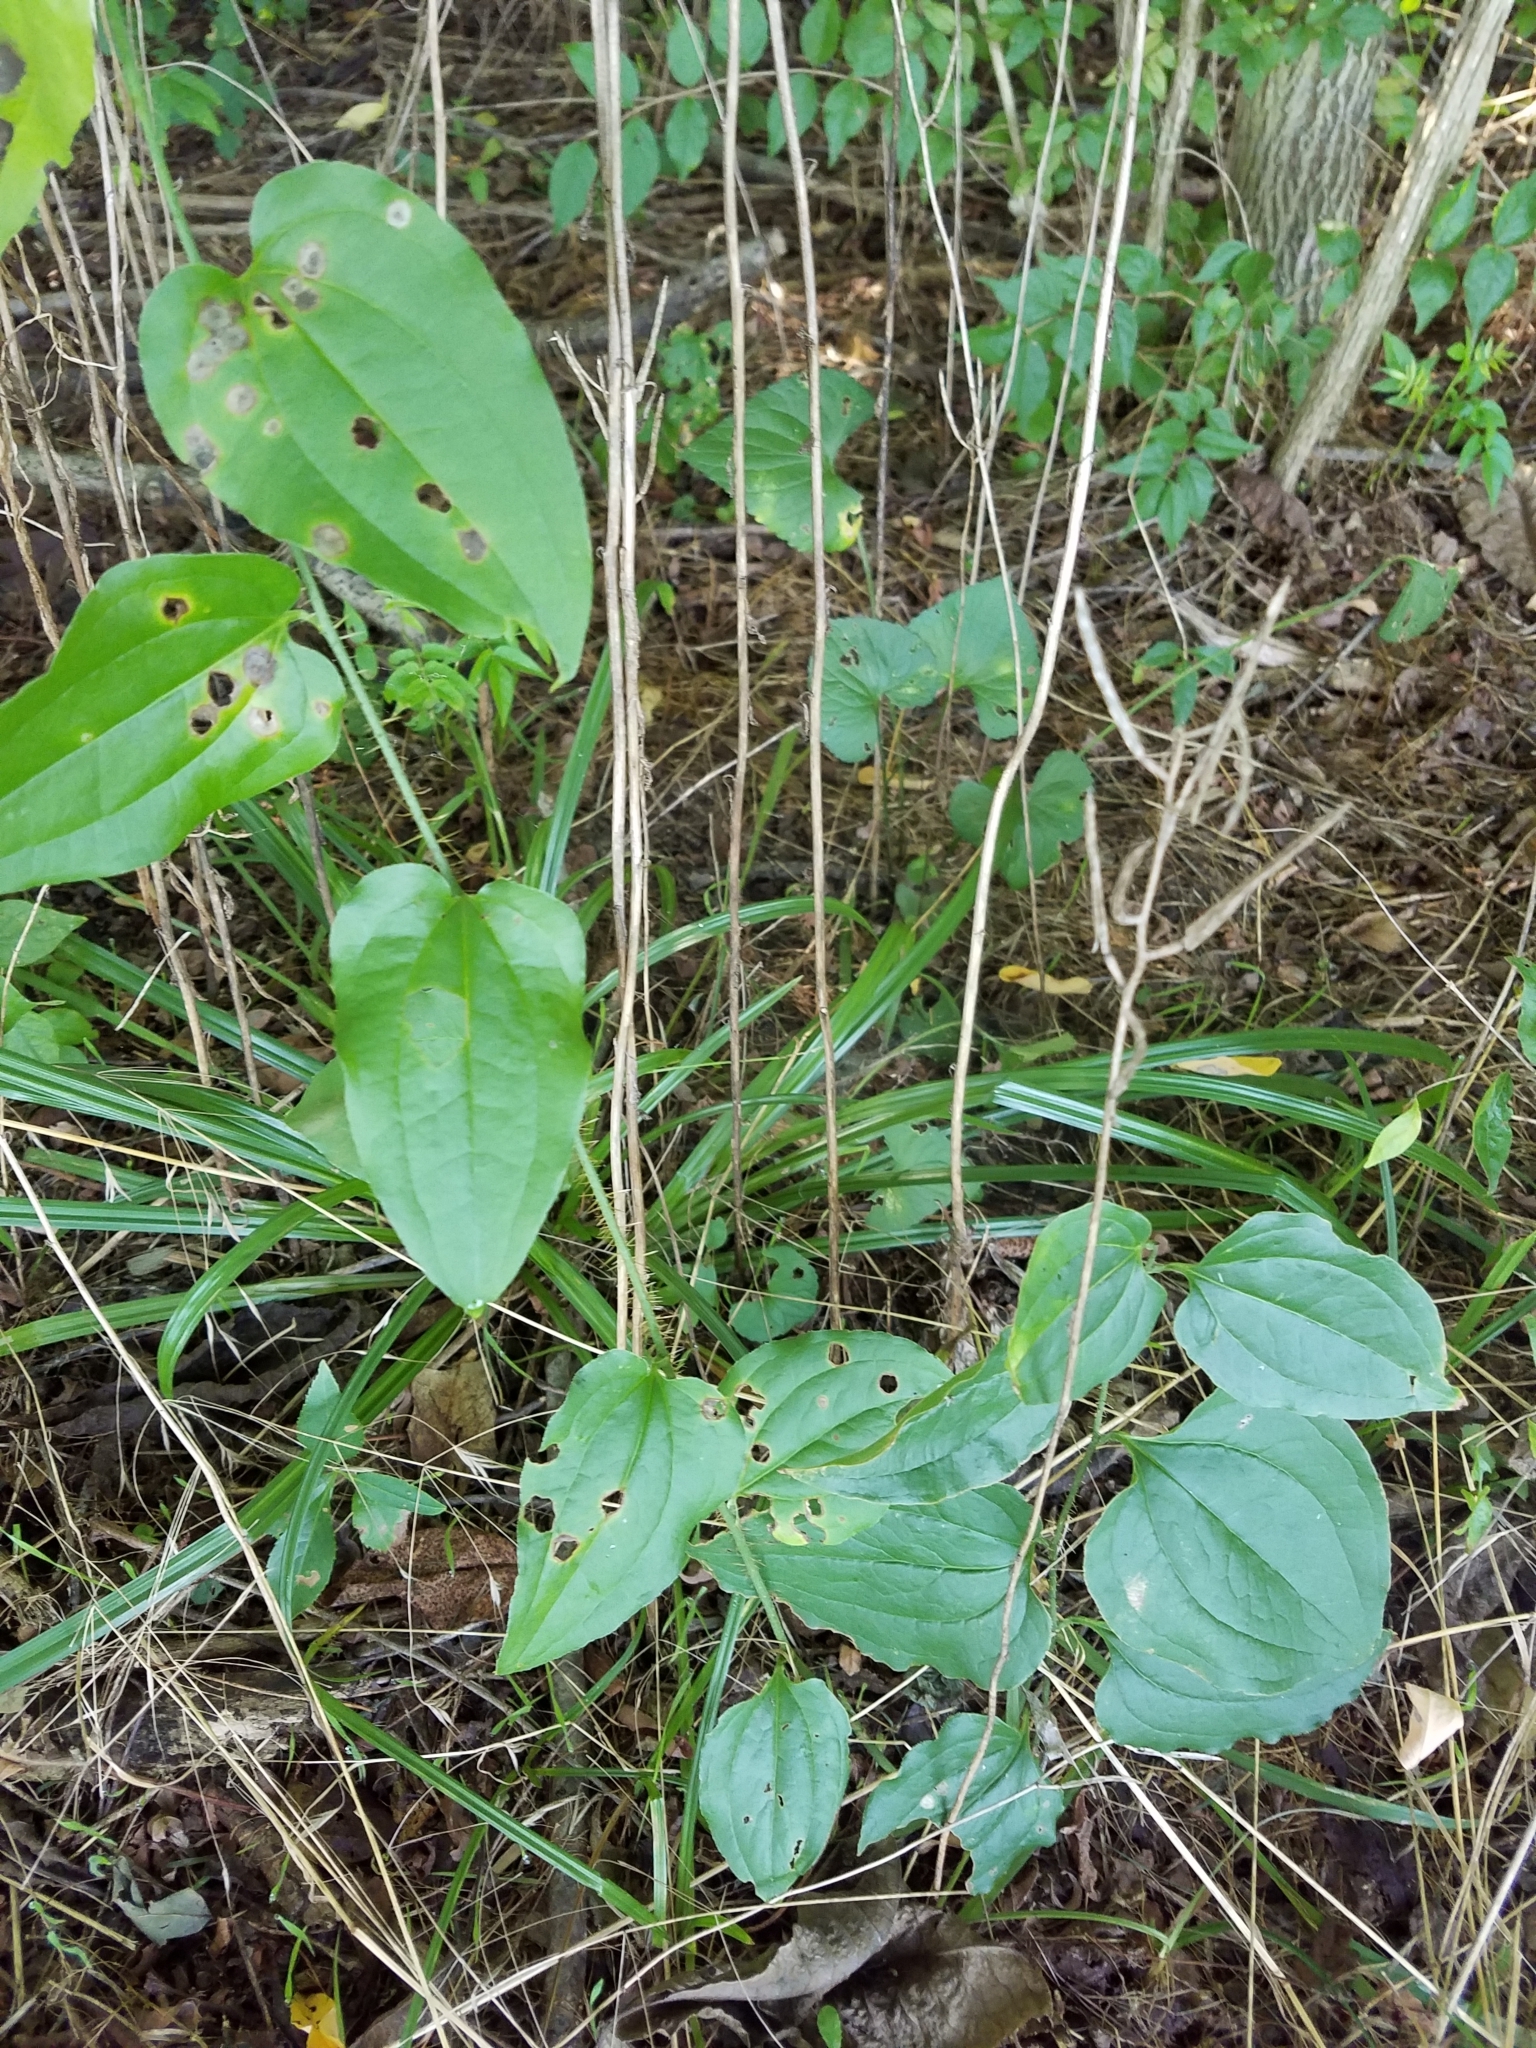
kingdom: Plantae
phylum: Tracheophyta
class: Liliopsida
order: Liliales
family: Smilacaceae
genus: Smilax
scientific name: Smilax tamnoides
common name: Hellfetter
